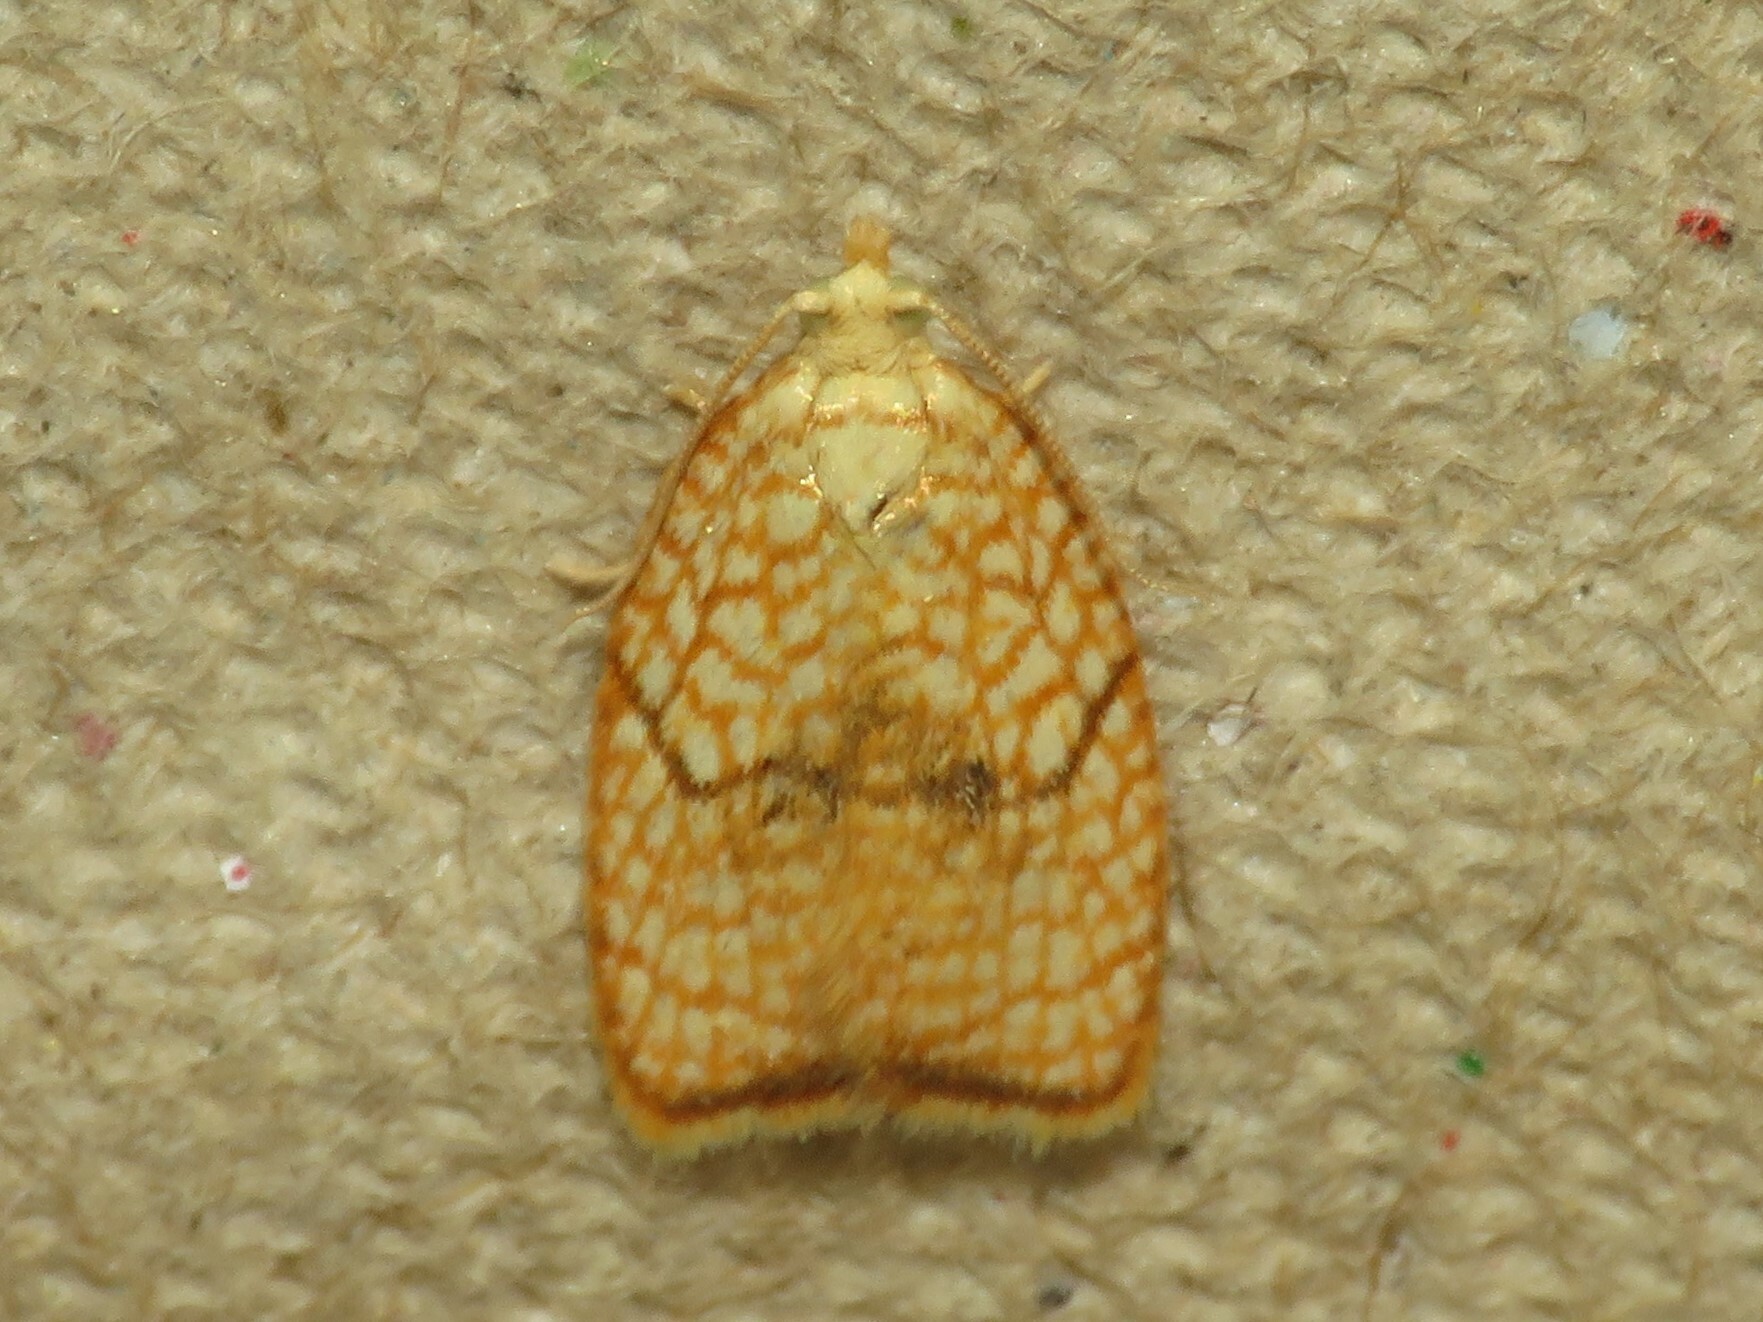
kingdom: Animalia
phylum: Arthropoda
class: Insecta
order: Lepidoptera
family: Tortricidae
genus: Acleris
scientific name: Acleris forsskaleana
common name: Maple button
